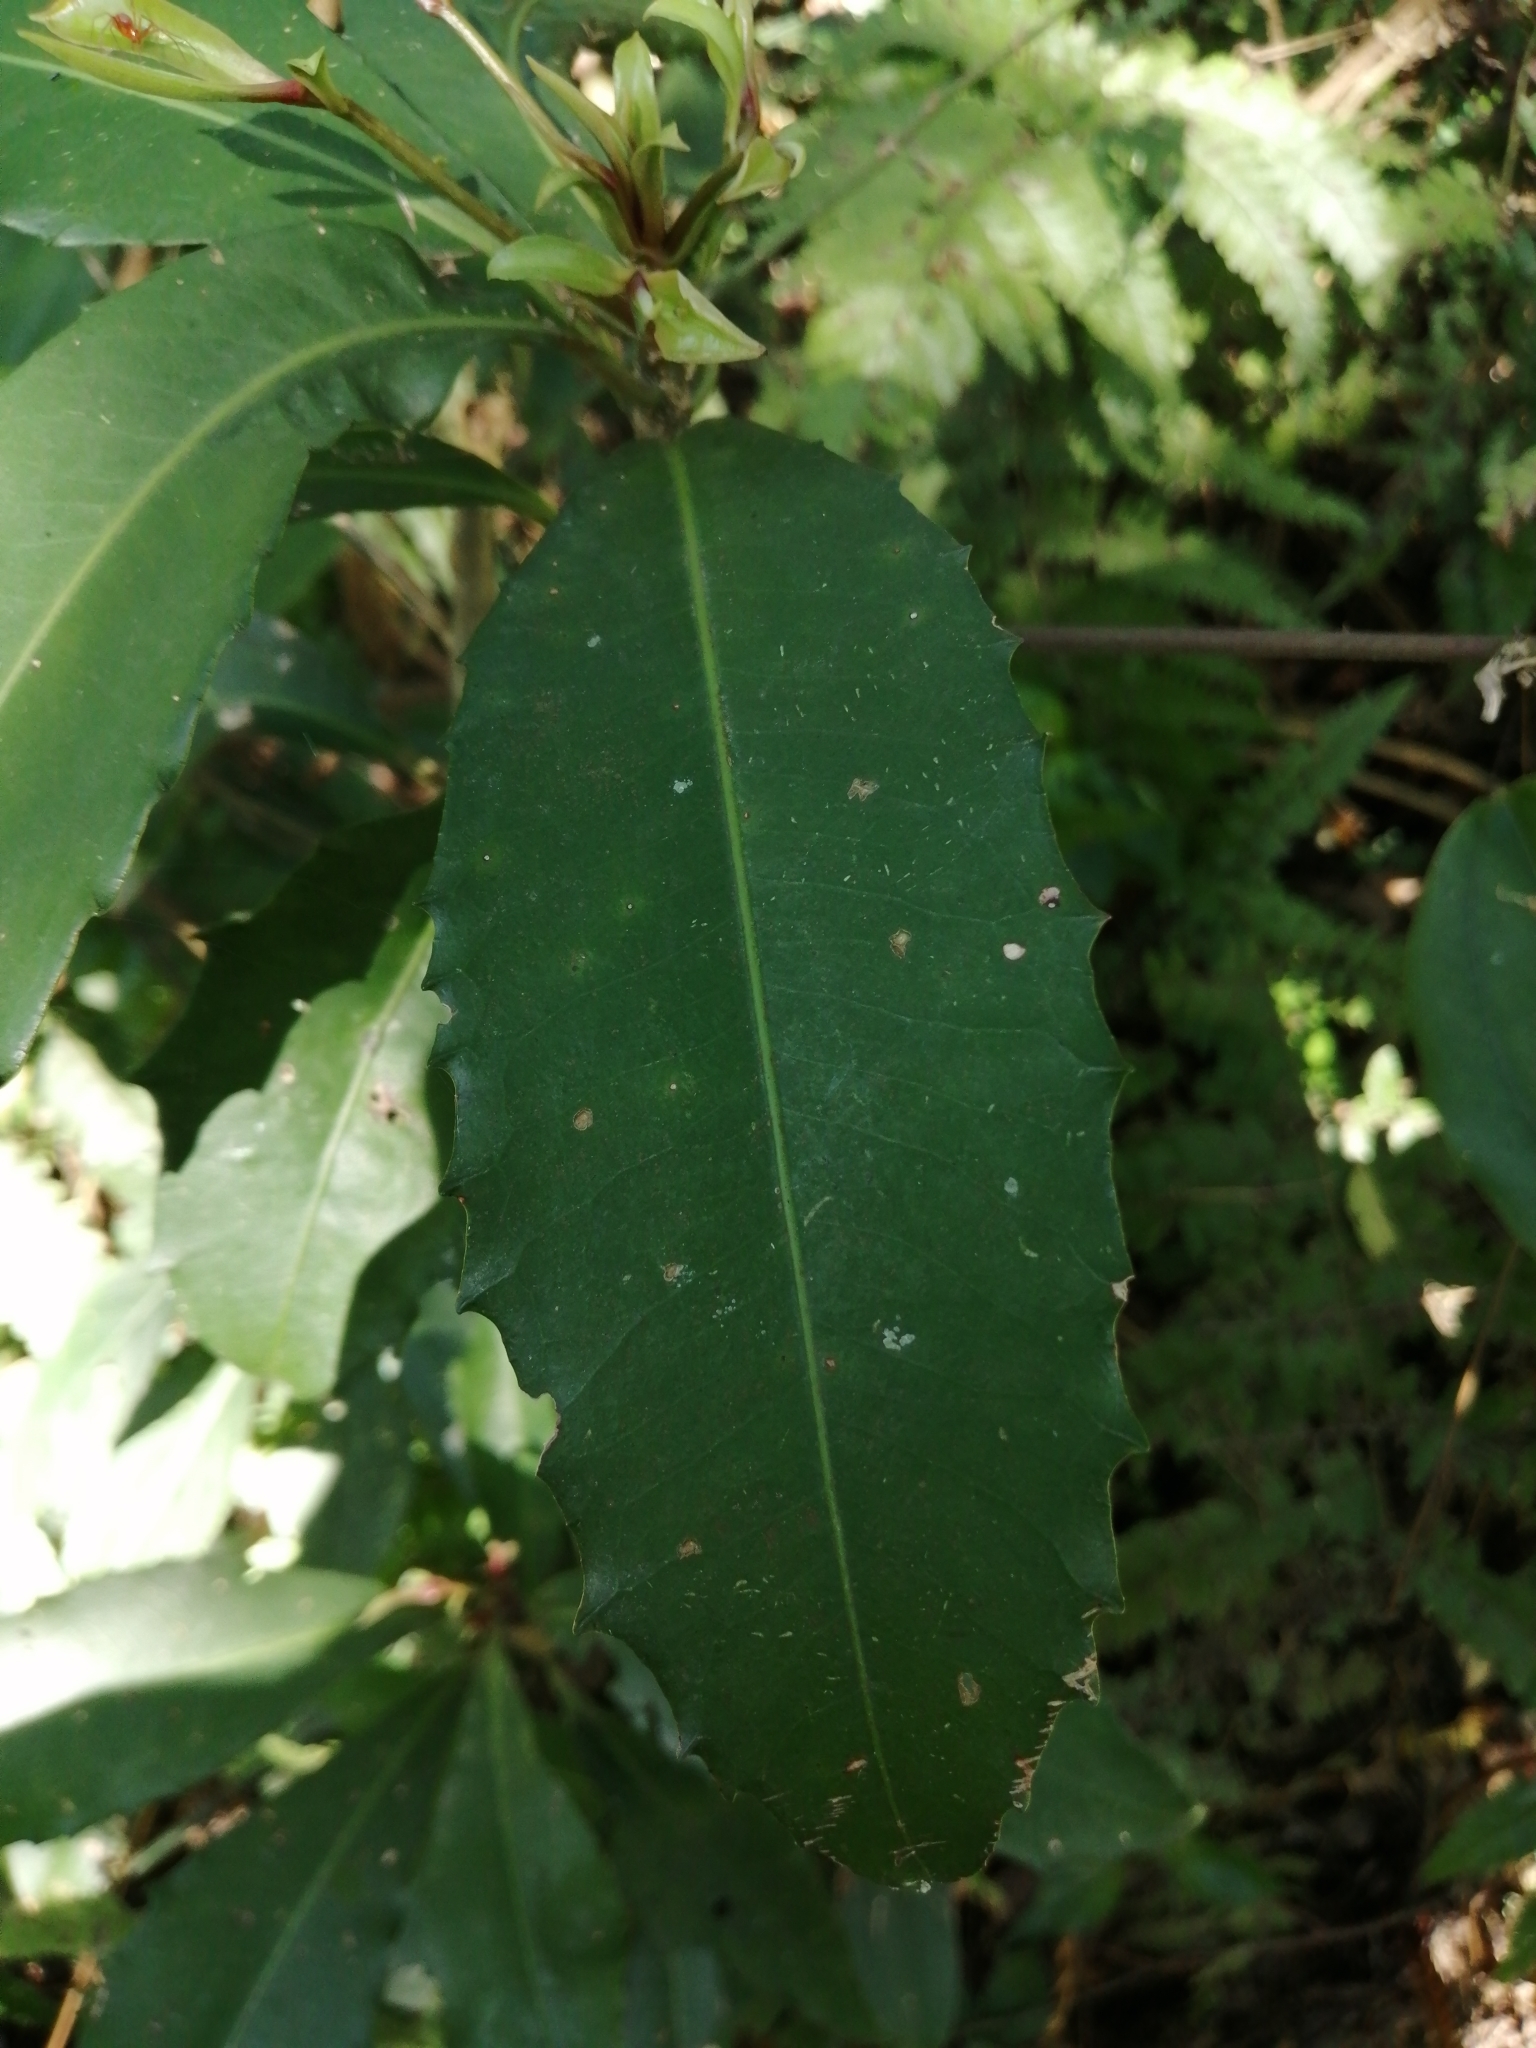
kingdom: Plantae
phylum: Tracheophyta
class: Magnoliopsida
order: Ericales
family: Primulaceae
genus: Ardisia
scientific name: Ardisia cornudentata
